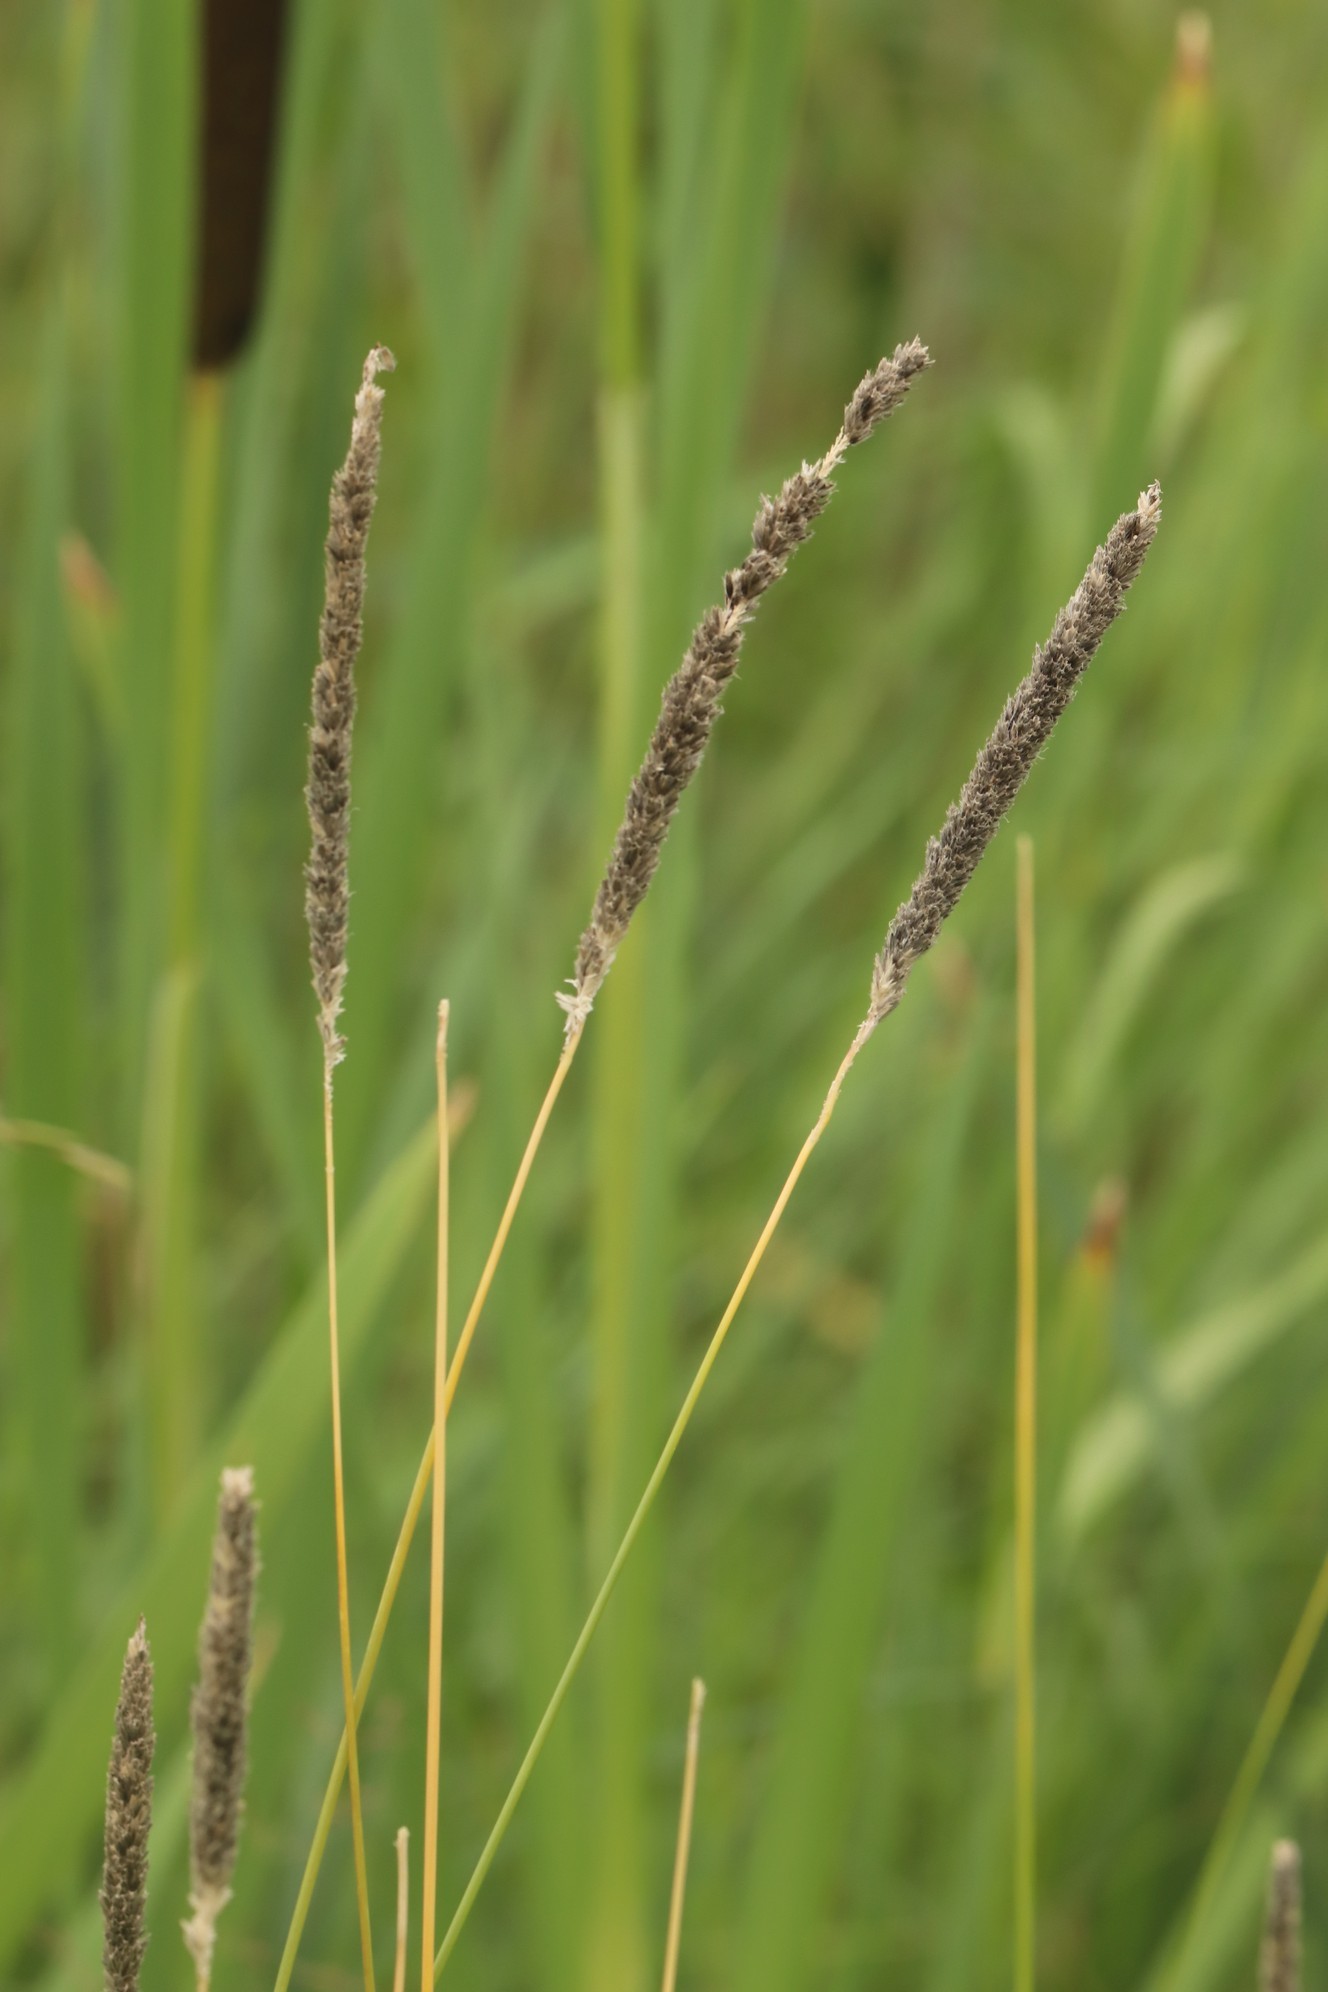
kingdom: Plantae
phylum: Tracheophyta
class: Liliopsida
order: Poales
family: Poaceae
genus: Alopecurus
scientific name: Alopecurus pratensis
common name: Meadow foxtail
